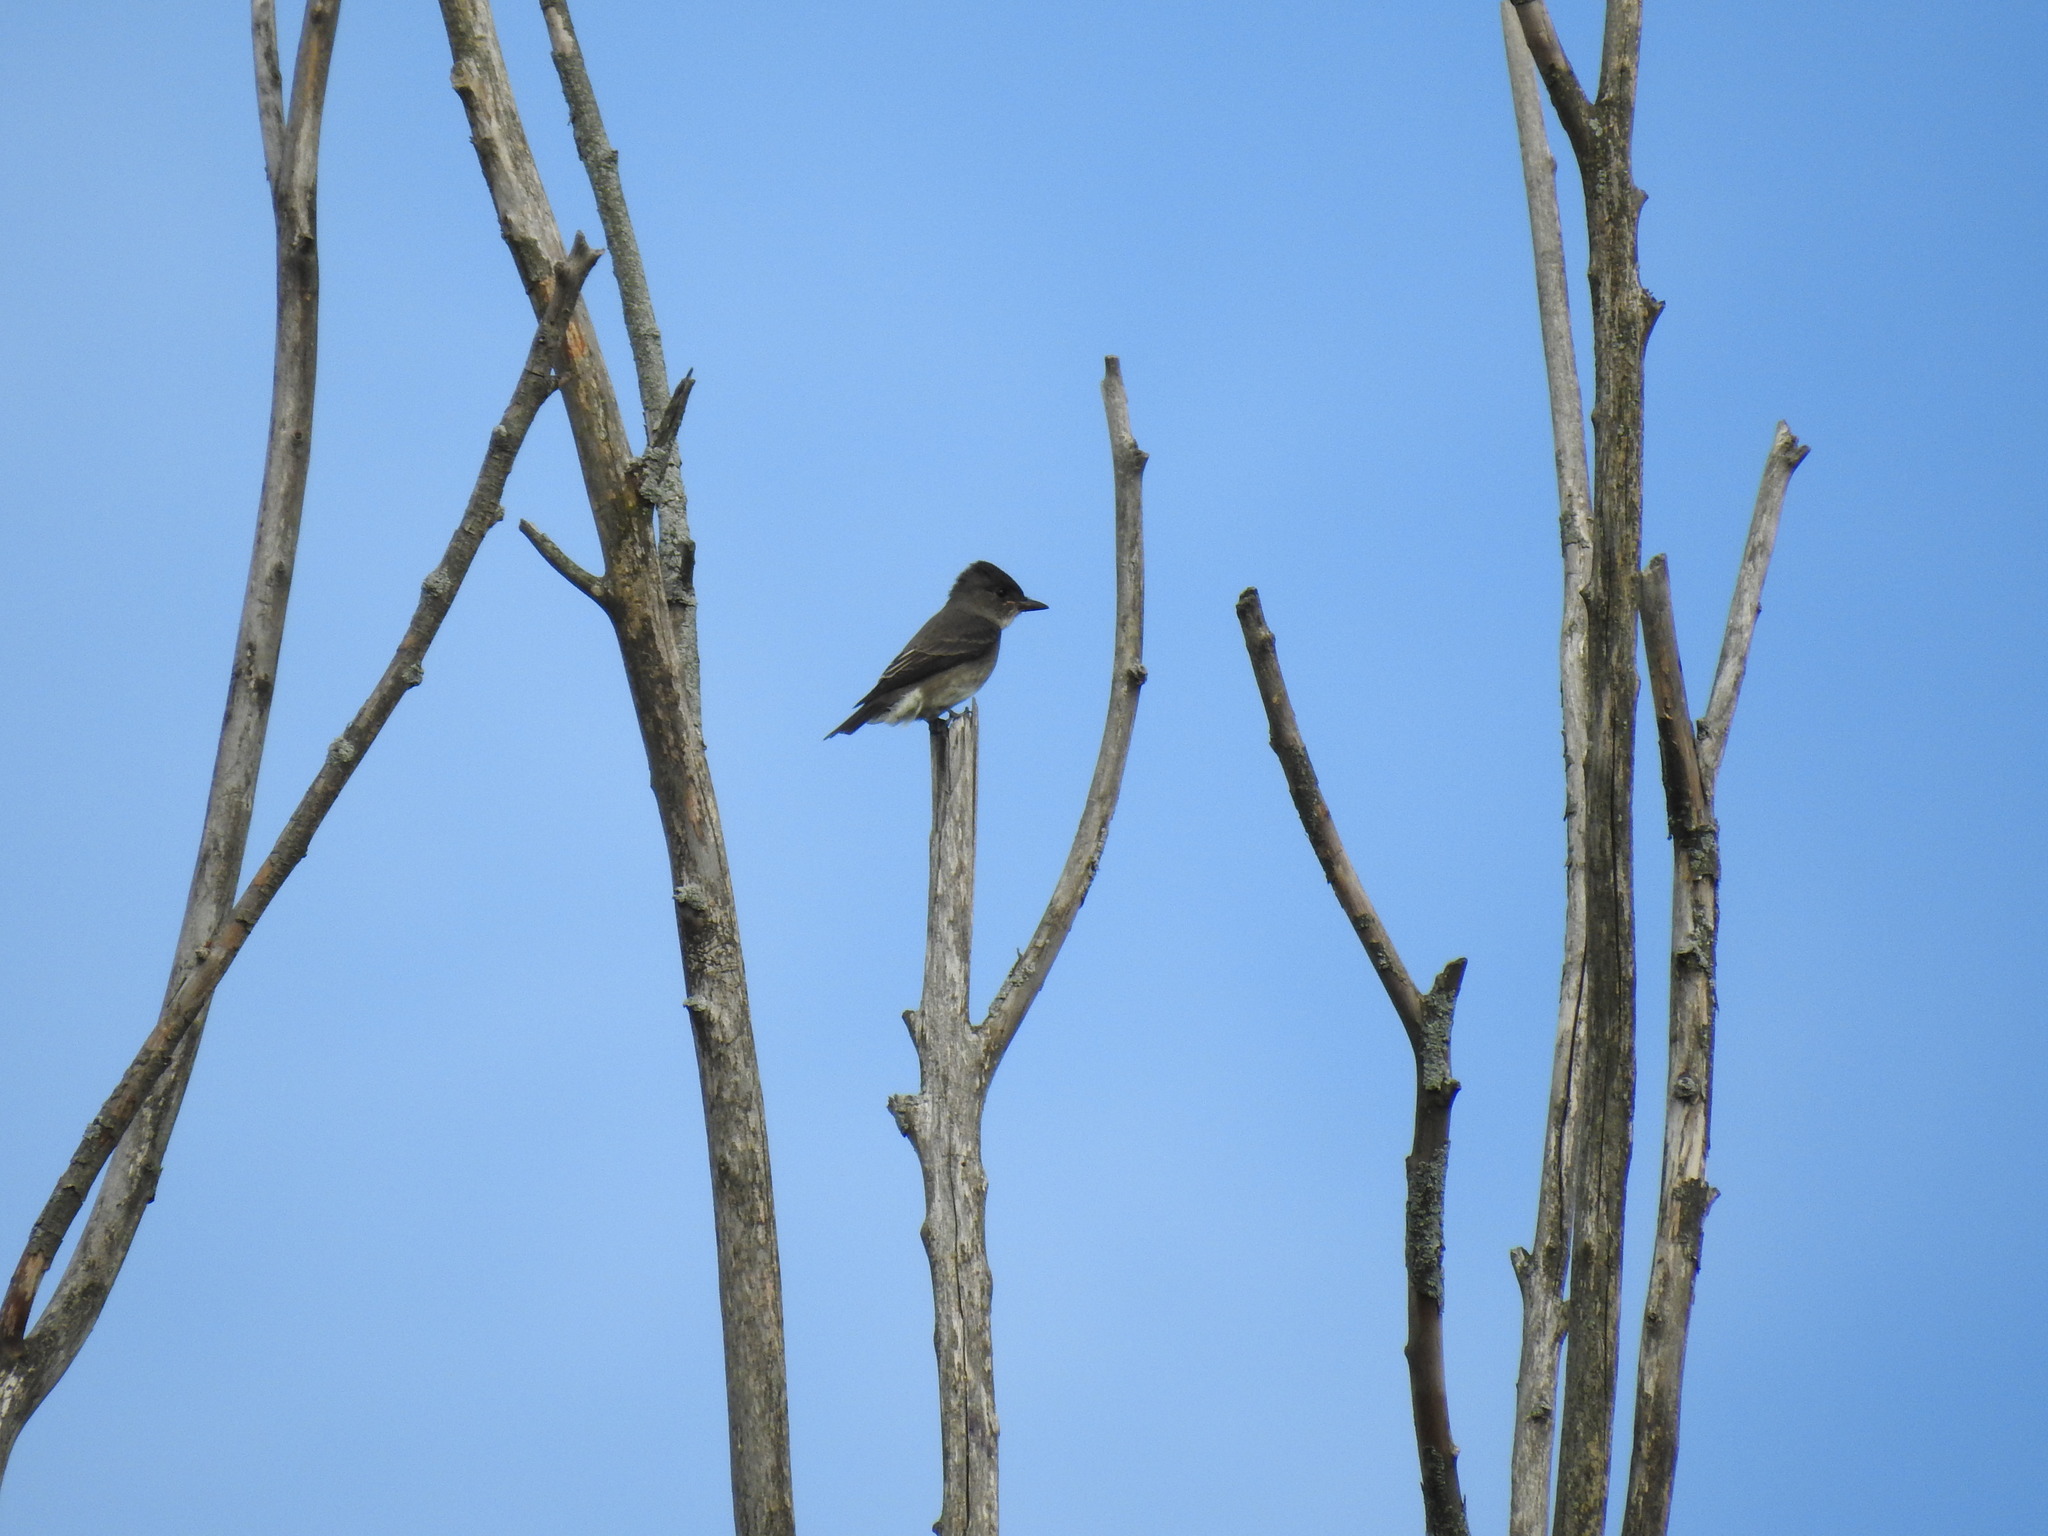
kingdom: Animalia
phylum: Chordata
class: Aves
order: Passeriformes
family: Tyrannidae
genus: Contopus
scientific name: Contopus cooperi
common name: Olive-sided flycatcher
